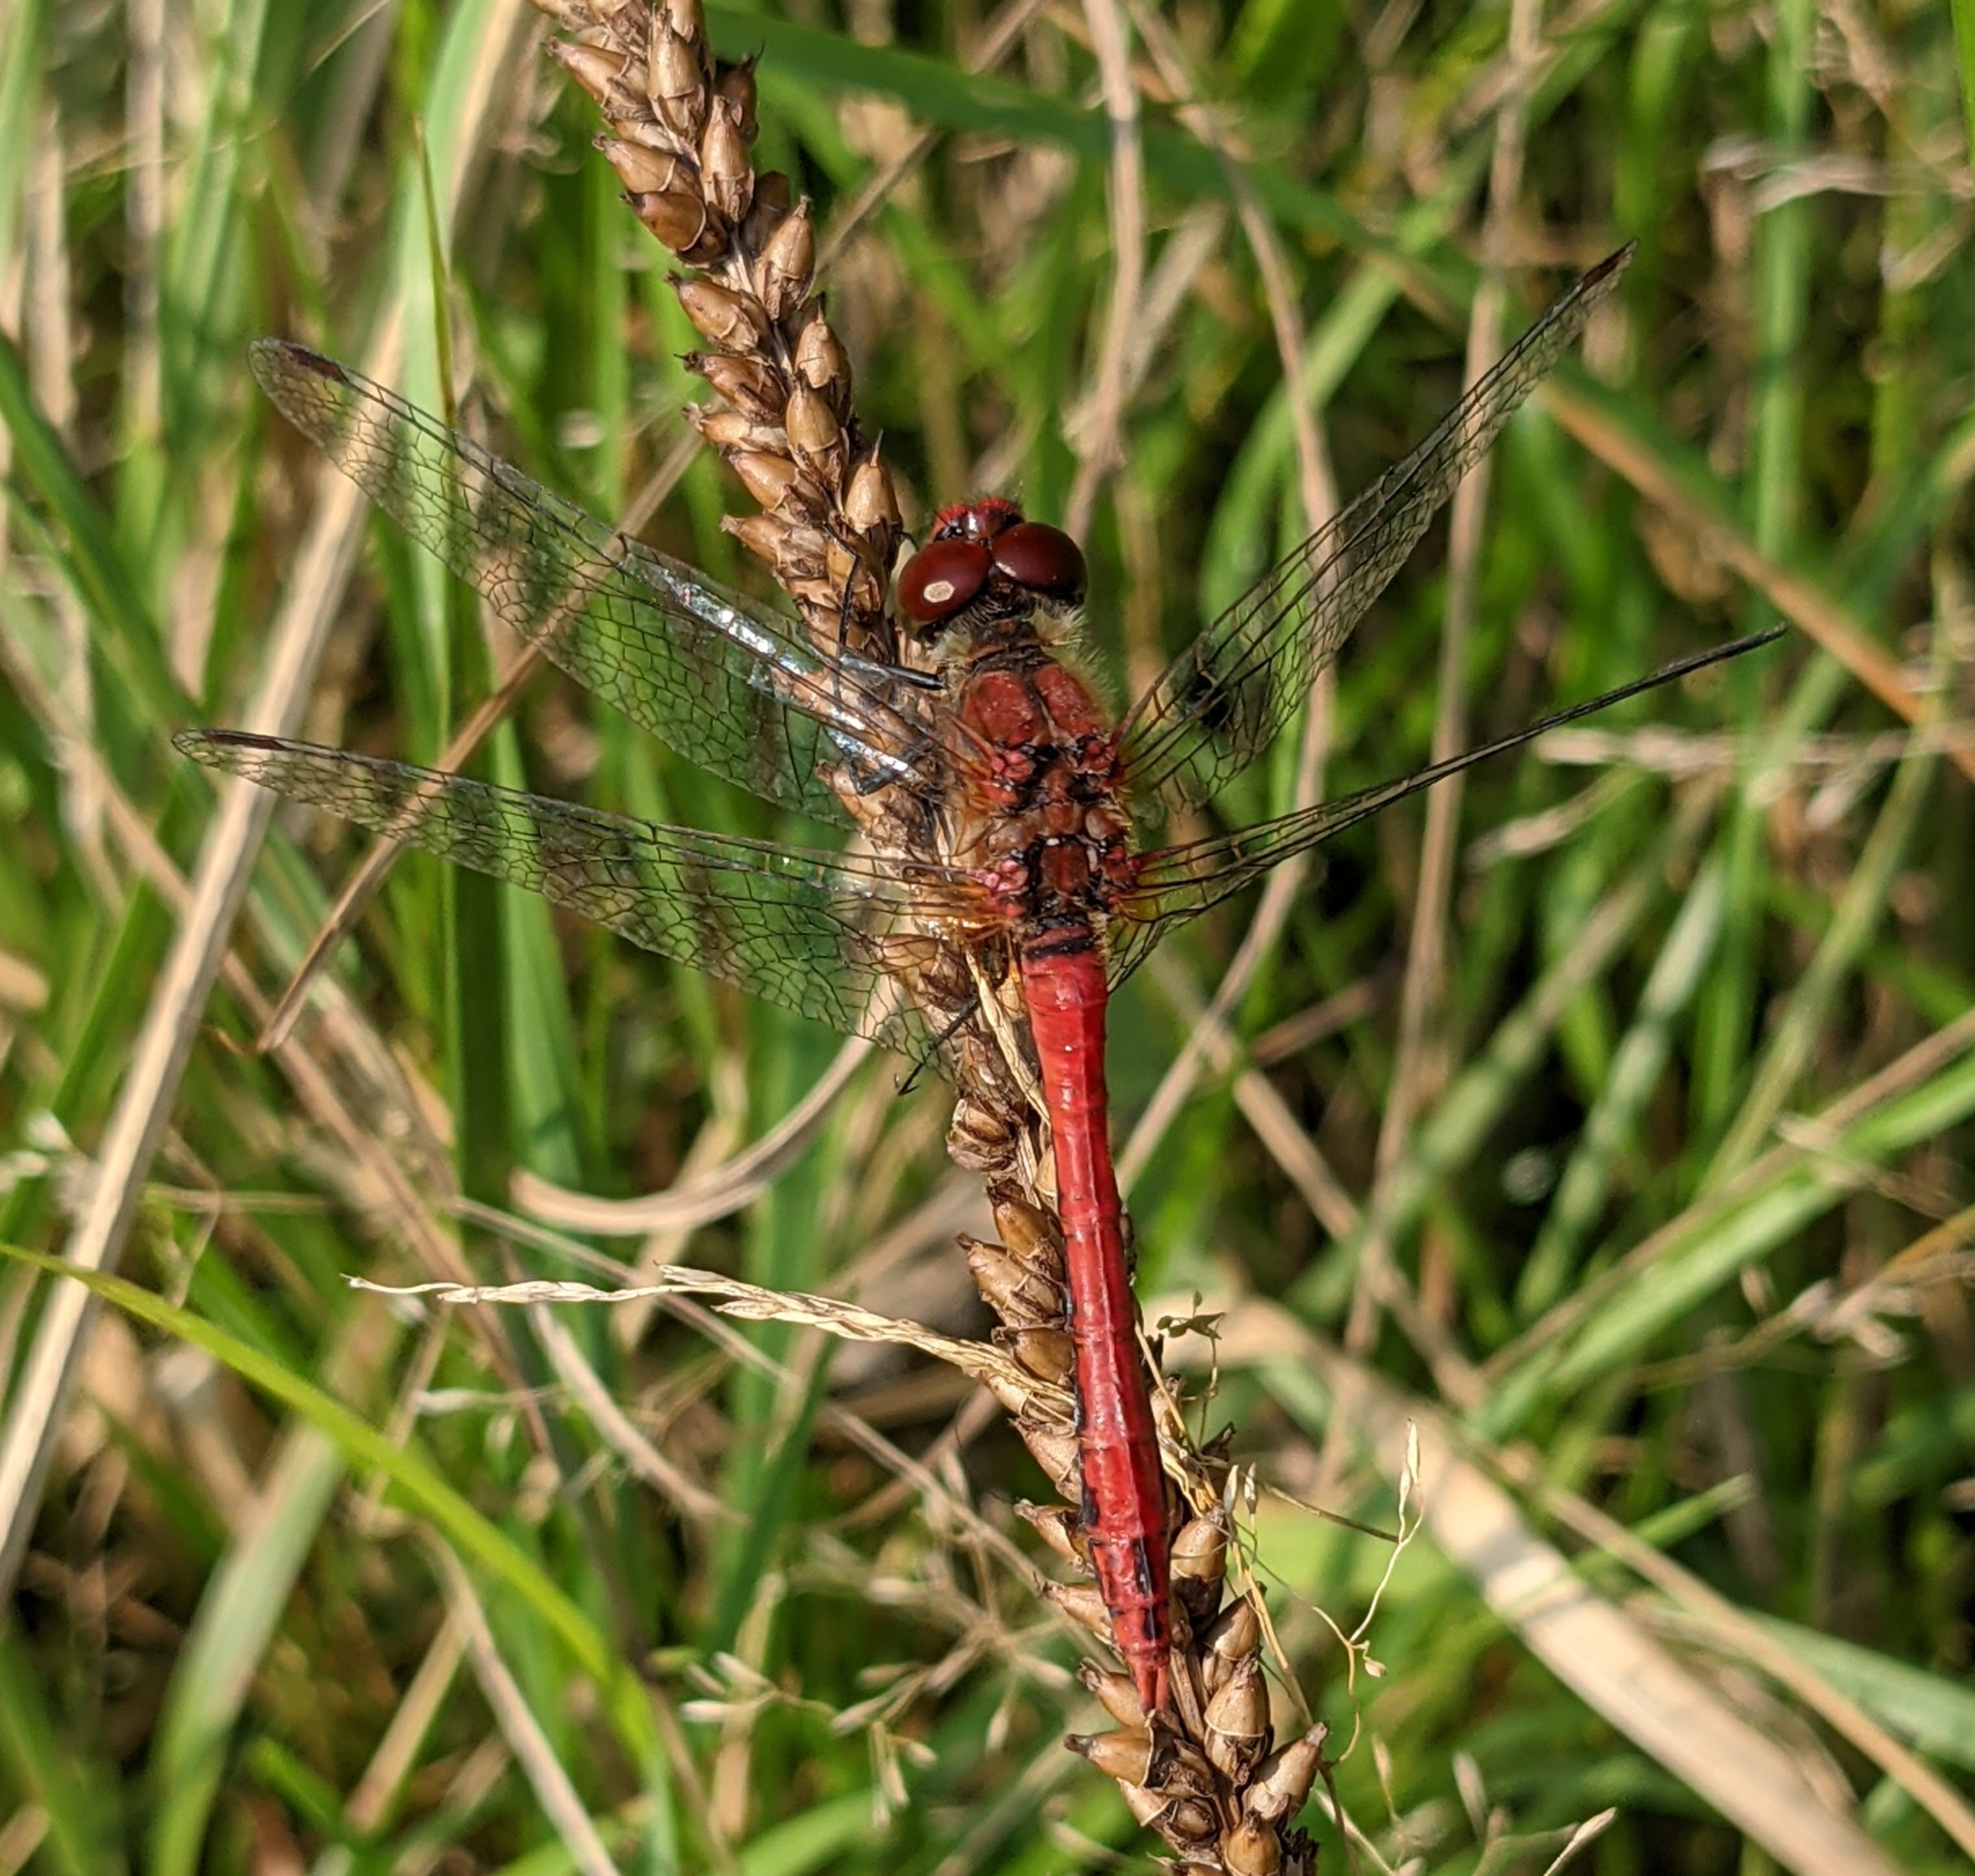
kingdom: Animalia
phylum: Arthropoda
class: Insecta
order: Odonata
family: Libellulidae
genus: Sympetrum
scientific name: Sympetrum sanguineum
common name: Ruddy darter
